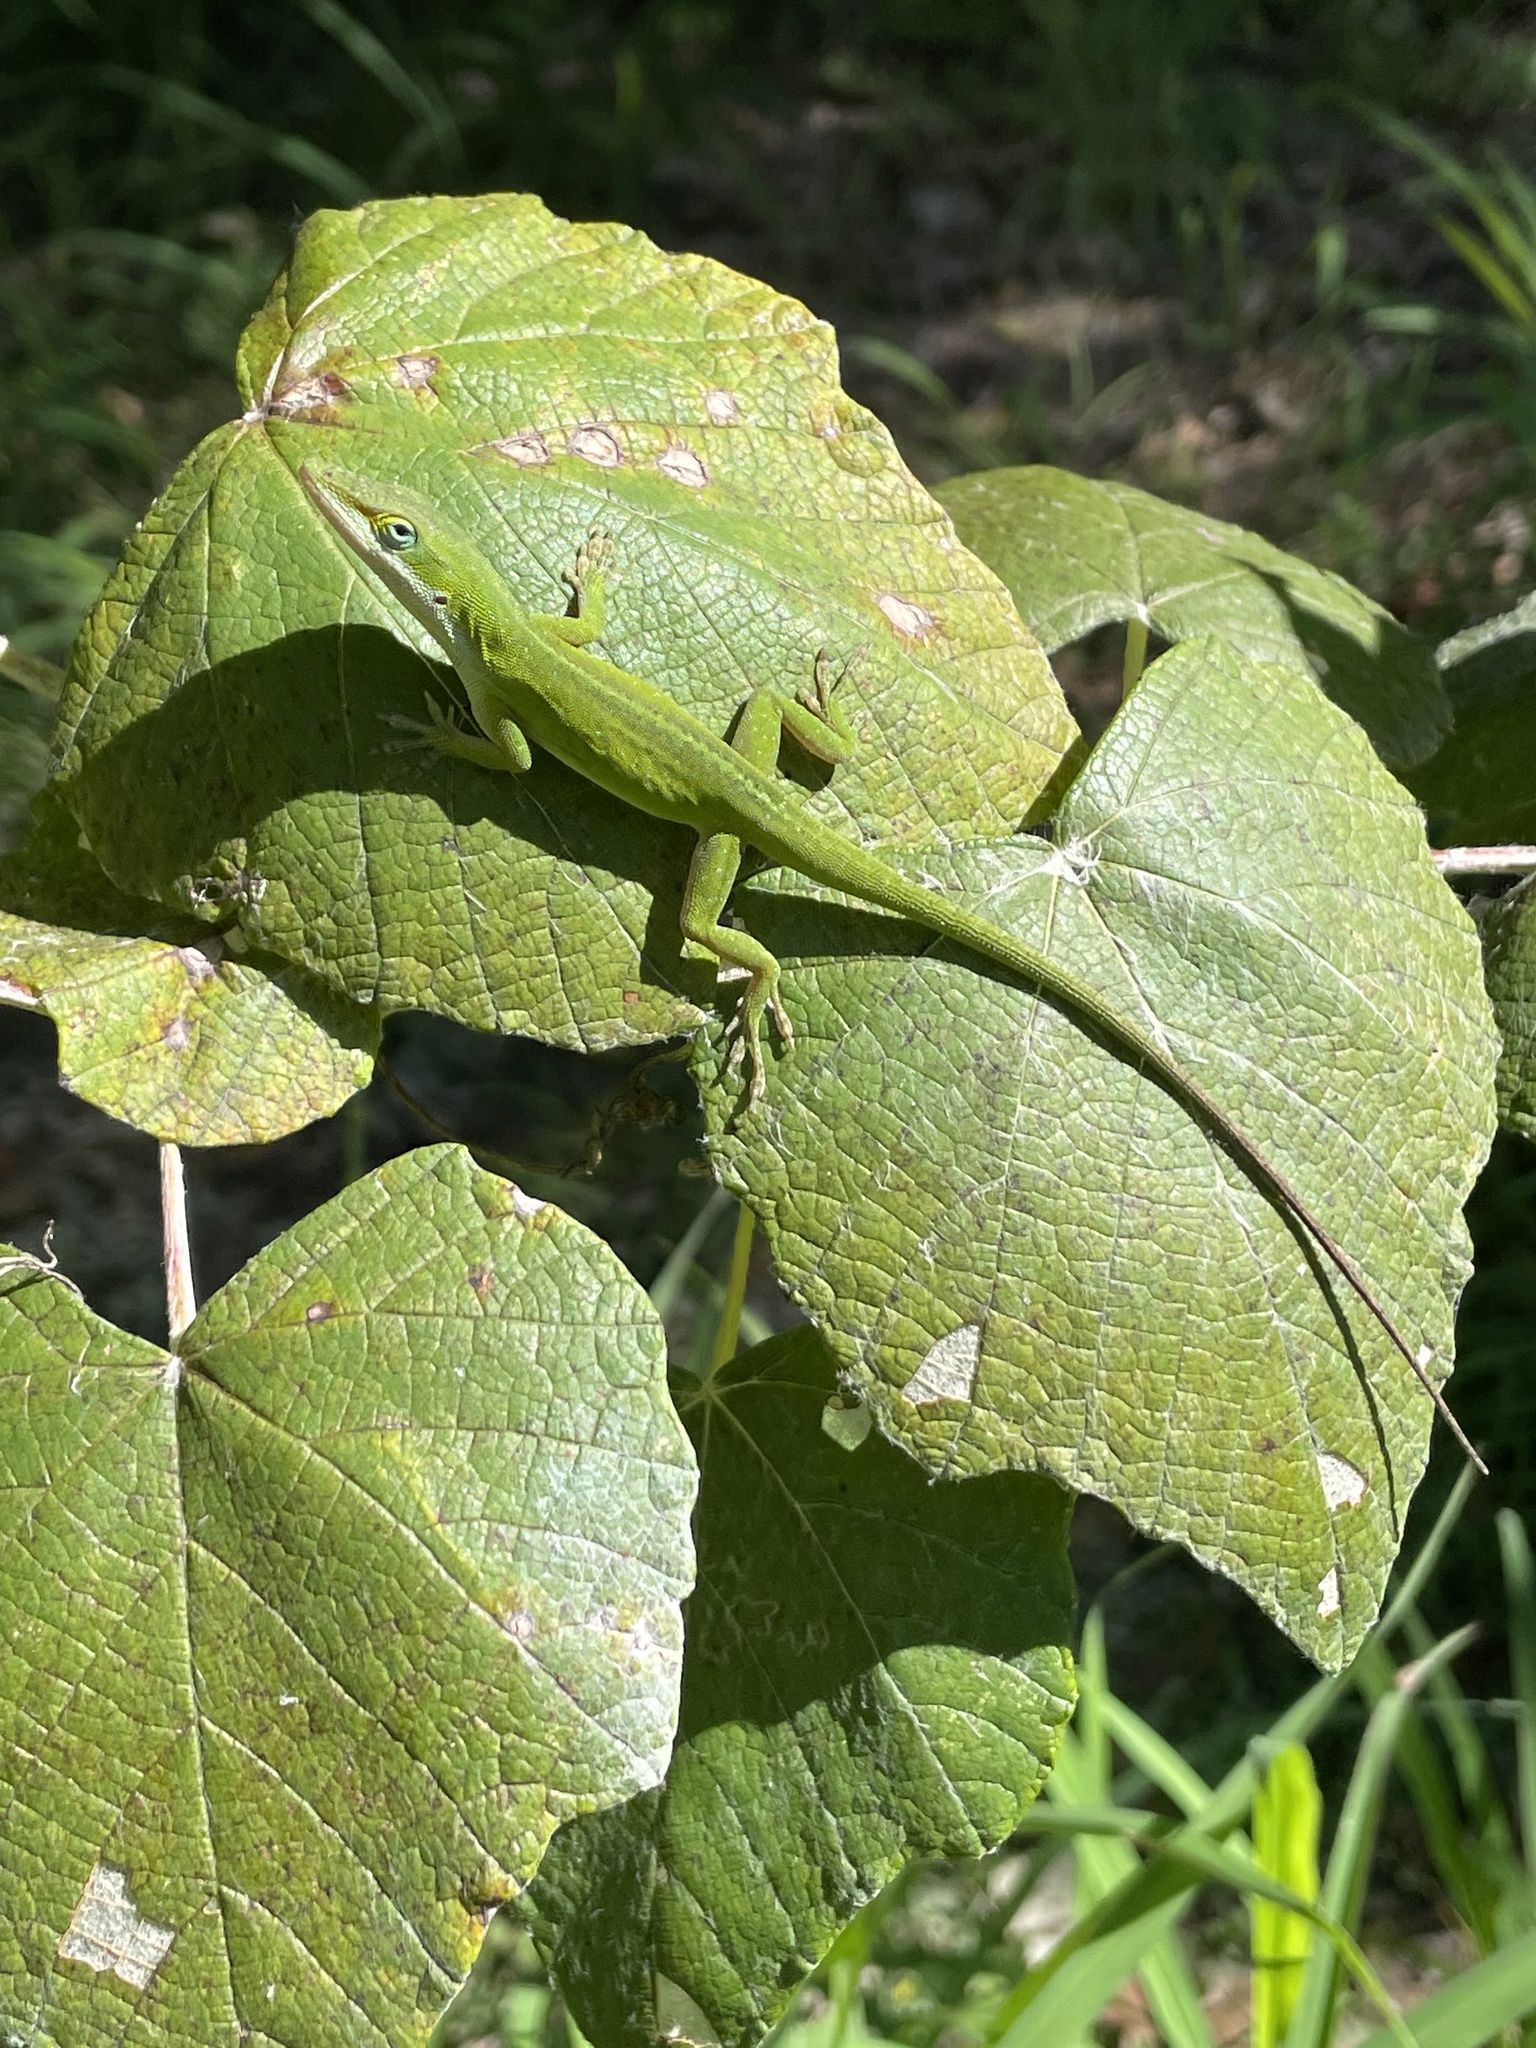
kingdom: Animalia
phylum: Chordata
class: Squamata
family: Dactyloidae
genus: Anolis
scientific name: Anolis carolinensis
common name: Green anole
